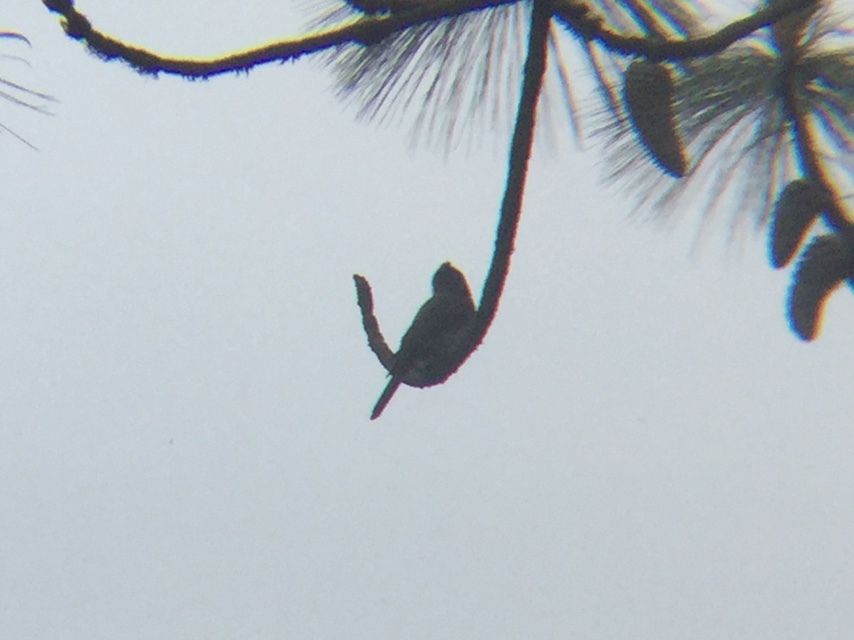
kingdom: Animalia
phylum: Chordata
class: Aves
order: Passeriformes
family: Tyrannidae
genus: Contopus
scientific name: Contopus pertinax
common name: Greater pewee
